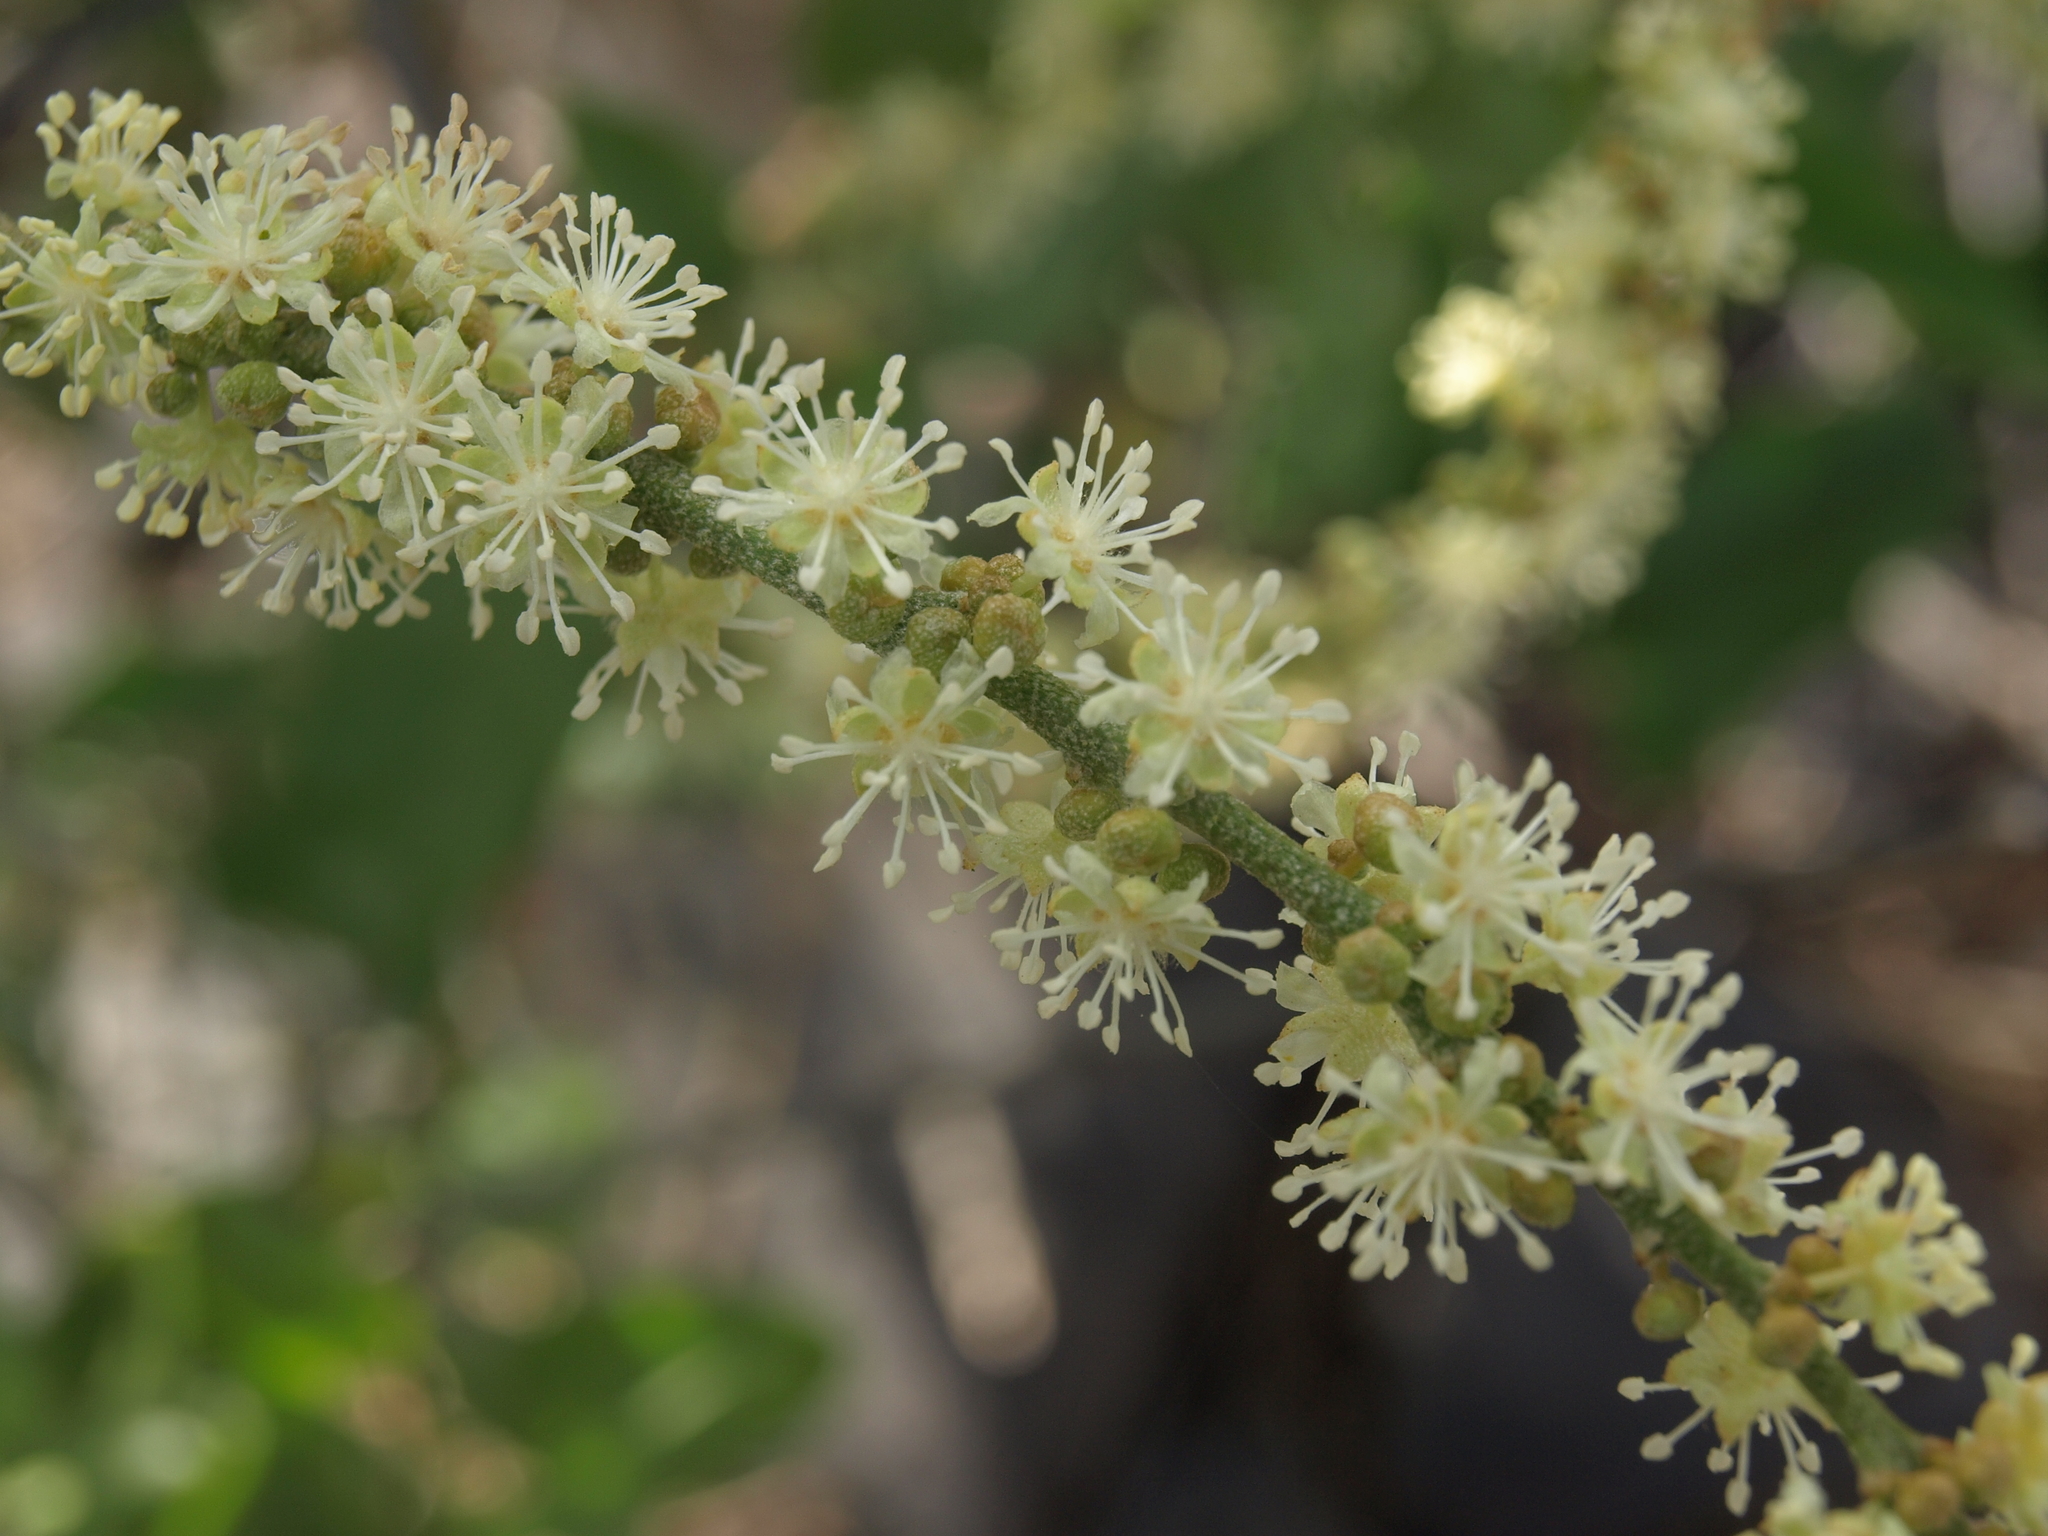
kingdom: Plantae
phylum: Tracheophyta
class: Magnoliopsida
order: Malpighiales
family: Euphorbiaceae
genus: Croton
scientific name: Croton scouleri
